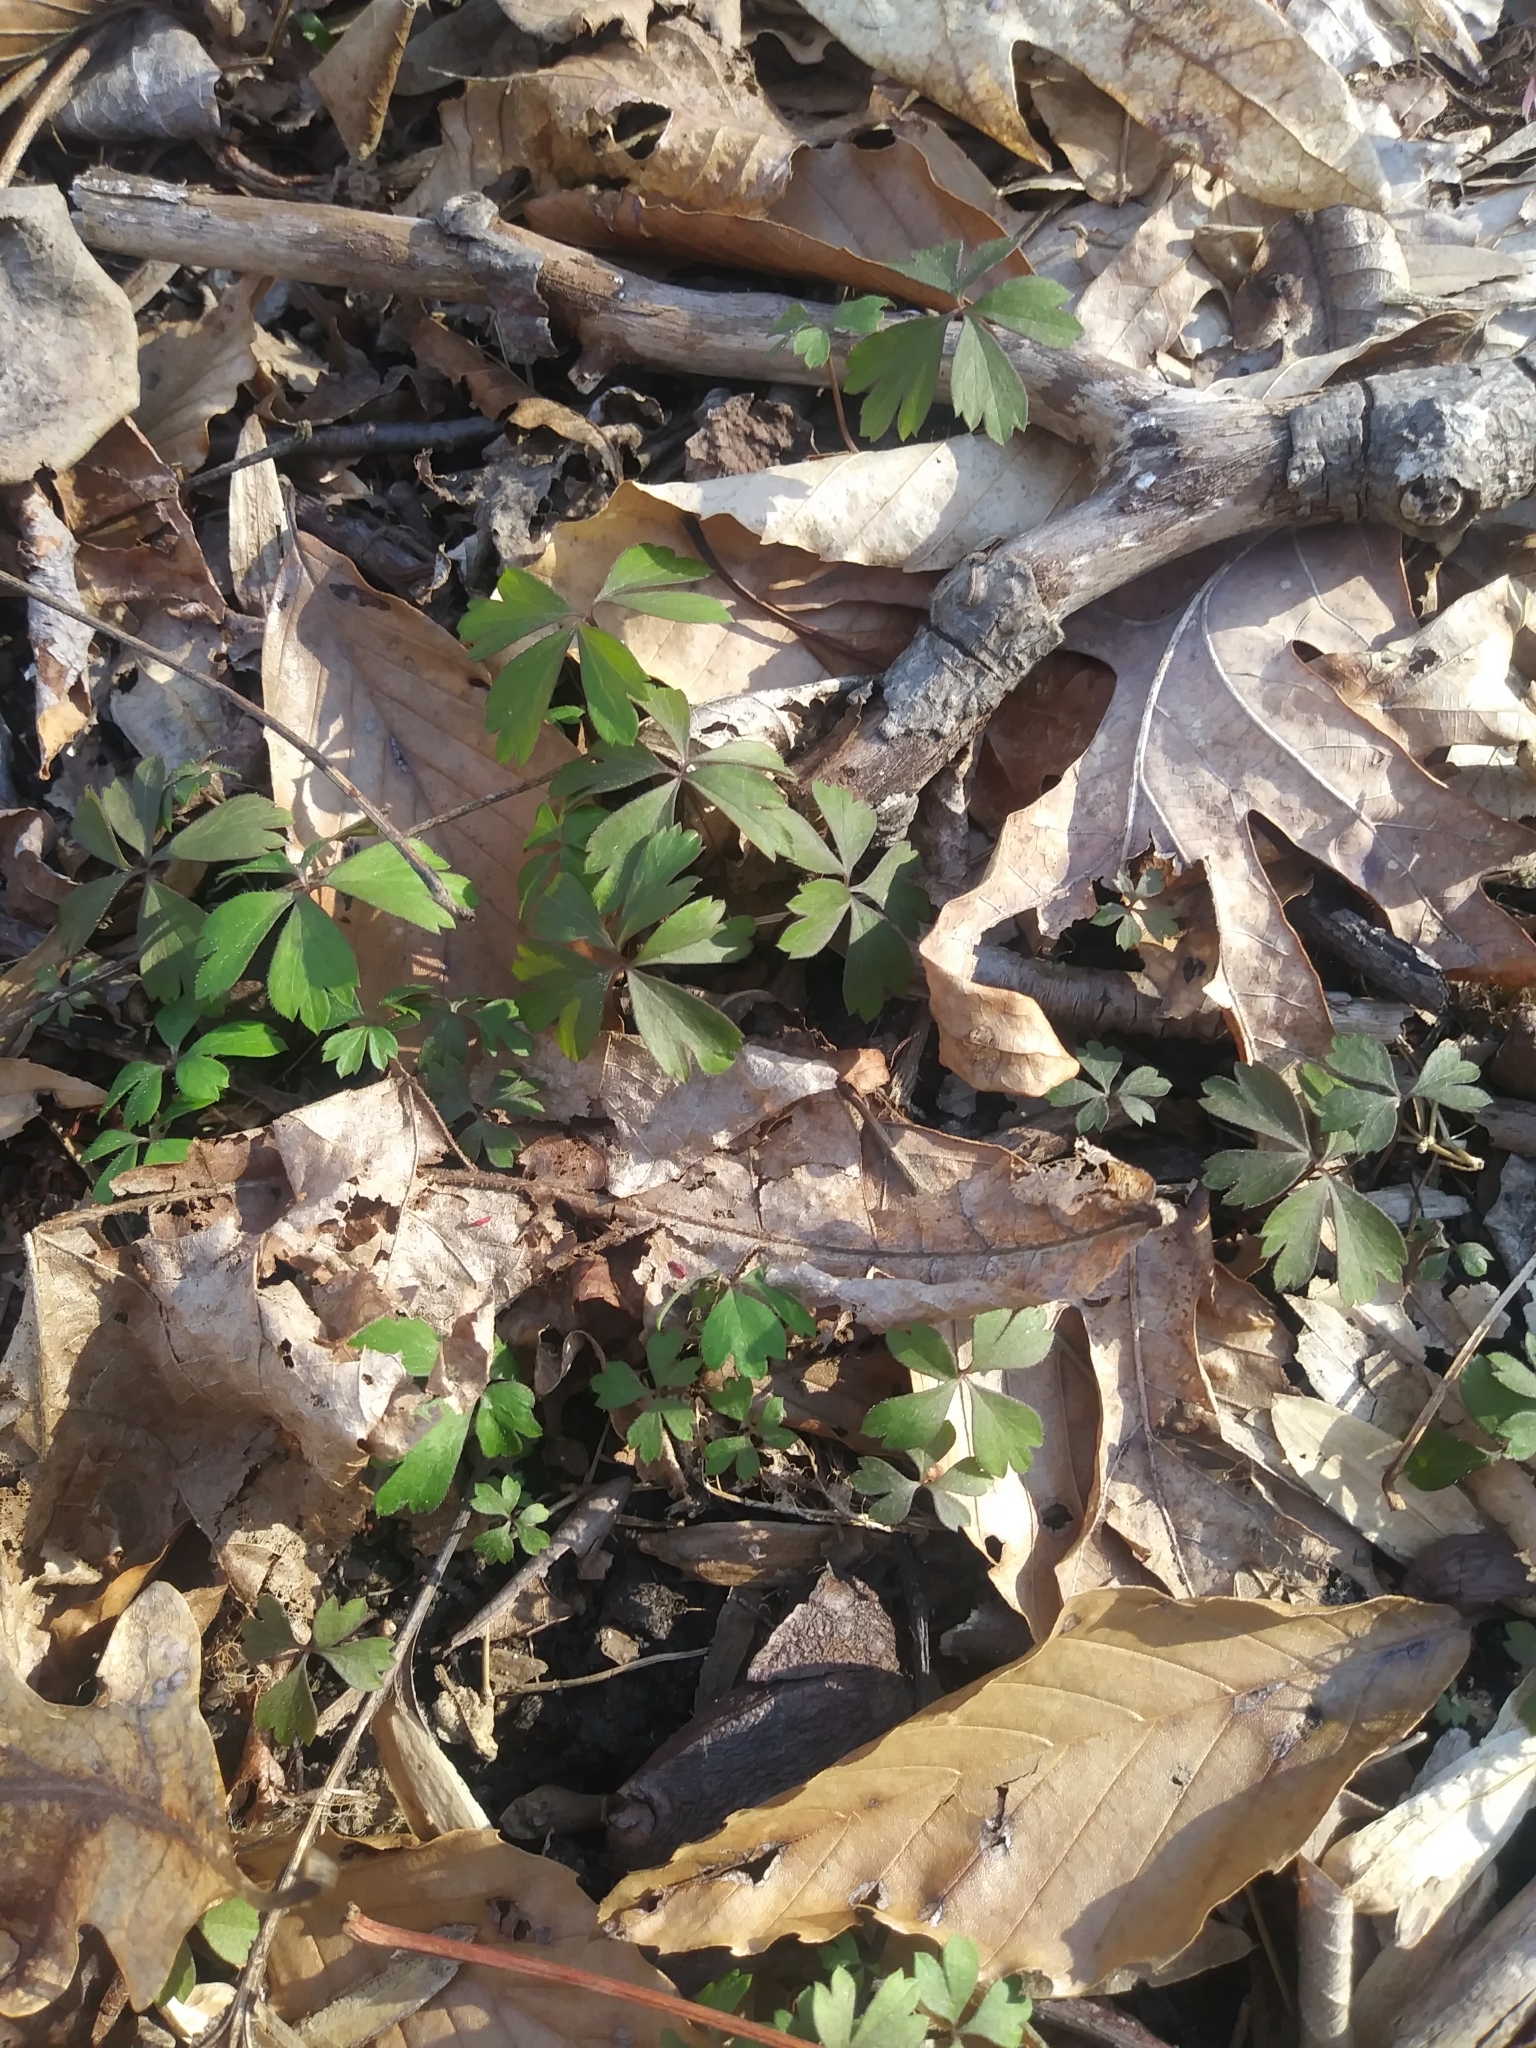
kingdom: Plantae
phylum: Tracheophyta
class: Magnoliopsida
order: Ranunculales
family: Ranunculaceae
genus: Anemone
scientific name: Anemone quinquefolia
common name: Wood anemone
